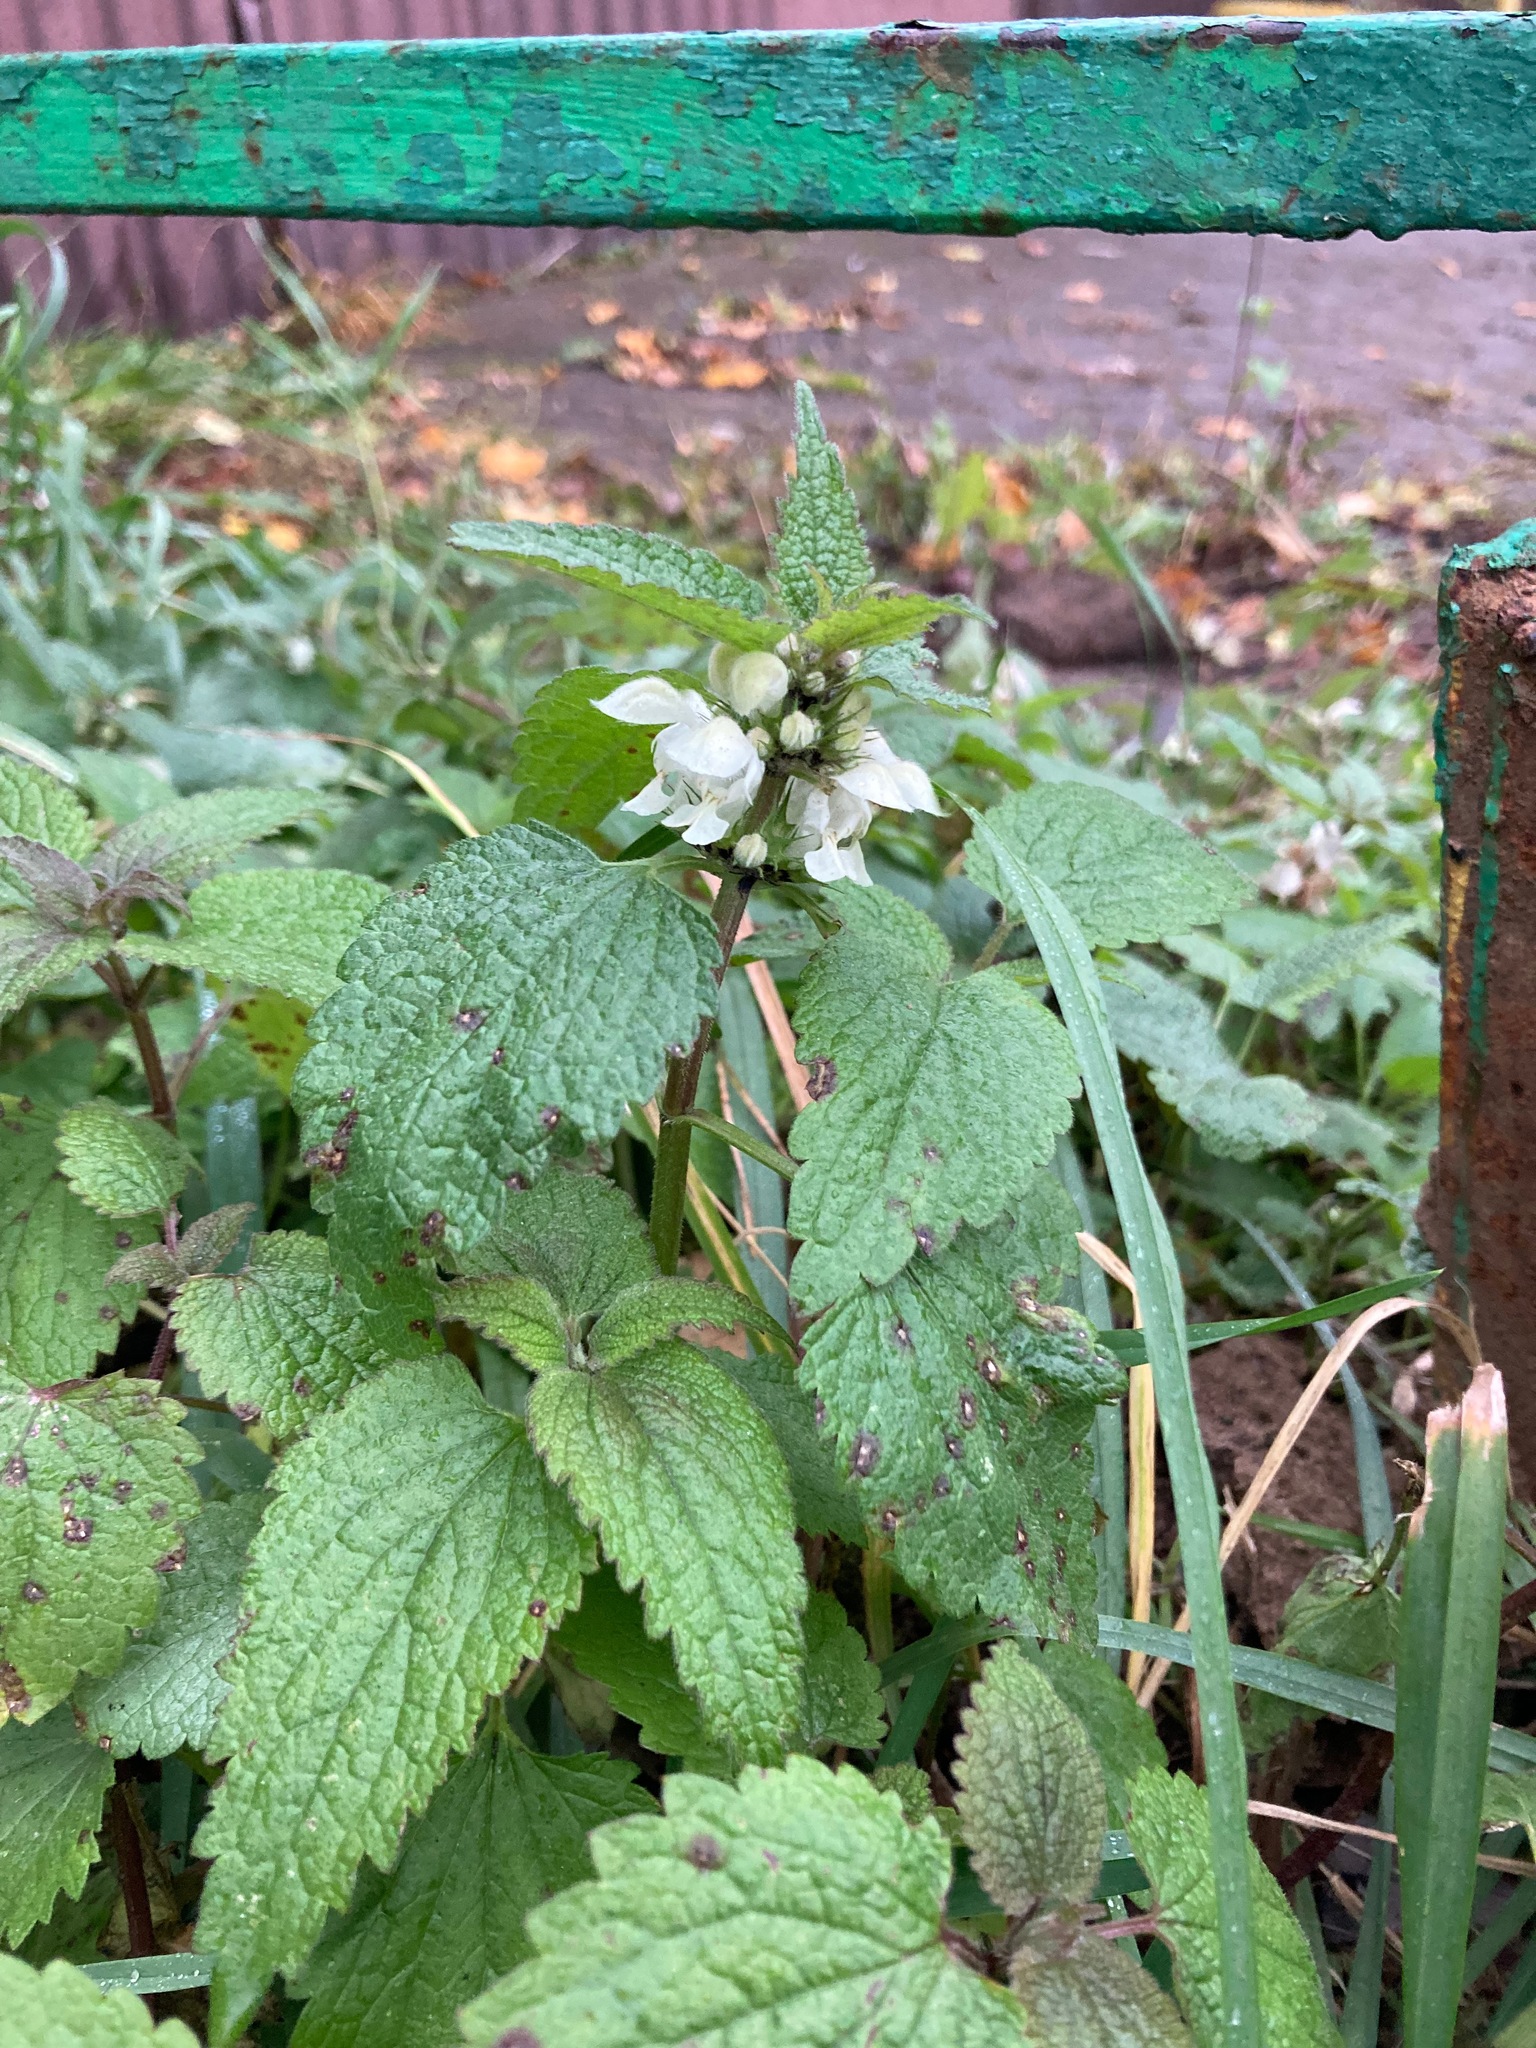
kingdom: Plantae
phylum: Tracheophyta
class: Magnoliopsida
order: Lamiales
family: Lamiaceae
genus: Lamium
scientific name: Lamium album
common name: White dead-nettle
